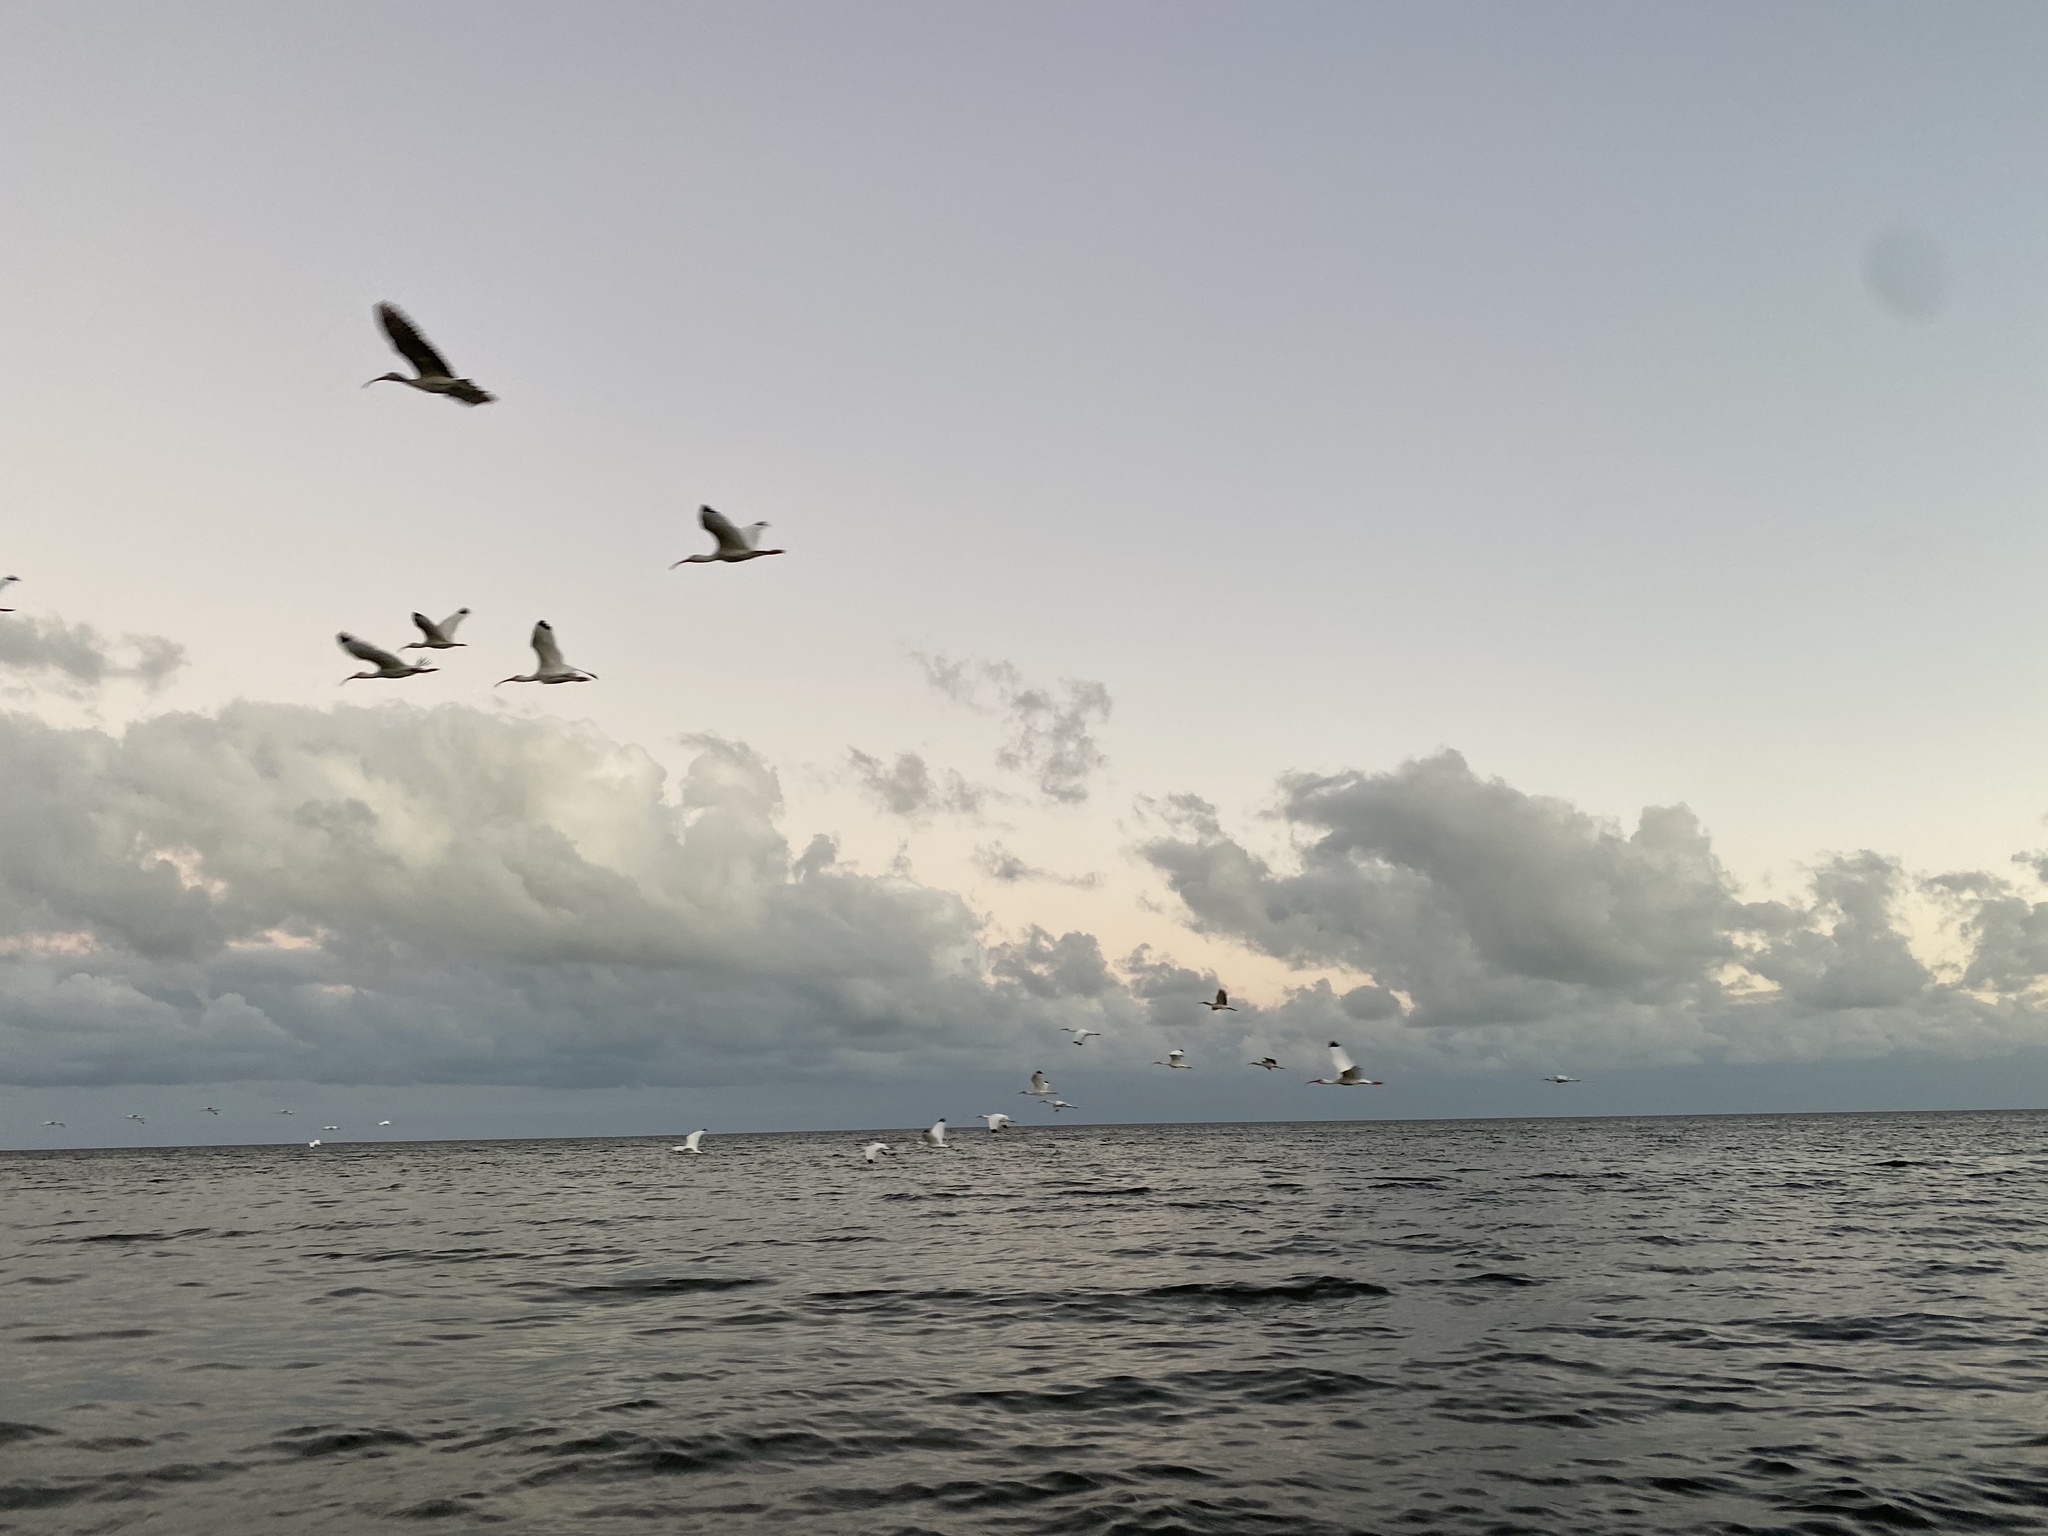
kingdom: Animalia
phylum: Chordata
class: Aves
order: Pelecaniformes
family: Threskiornithidae
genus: Eudocimus
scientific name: Eudocimus albus
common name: White ibis
